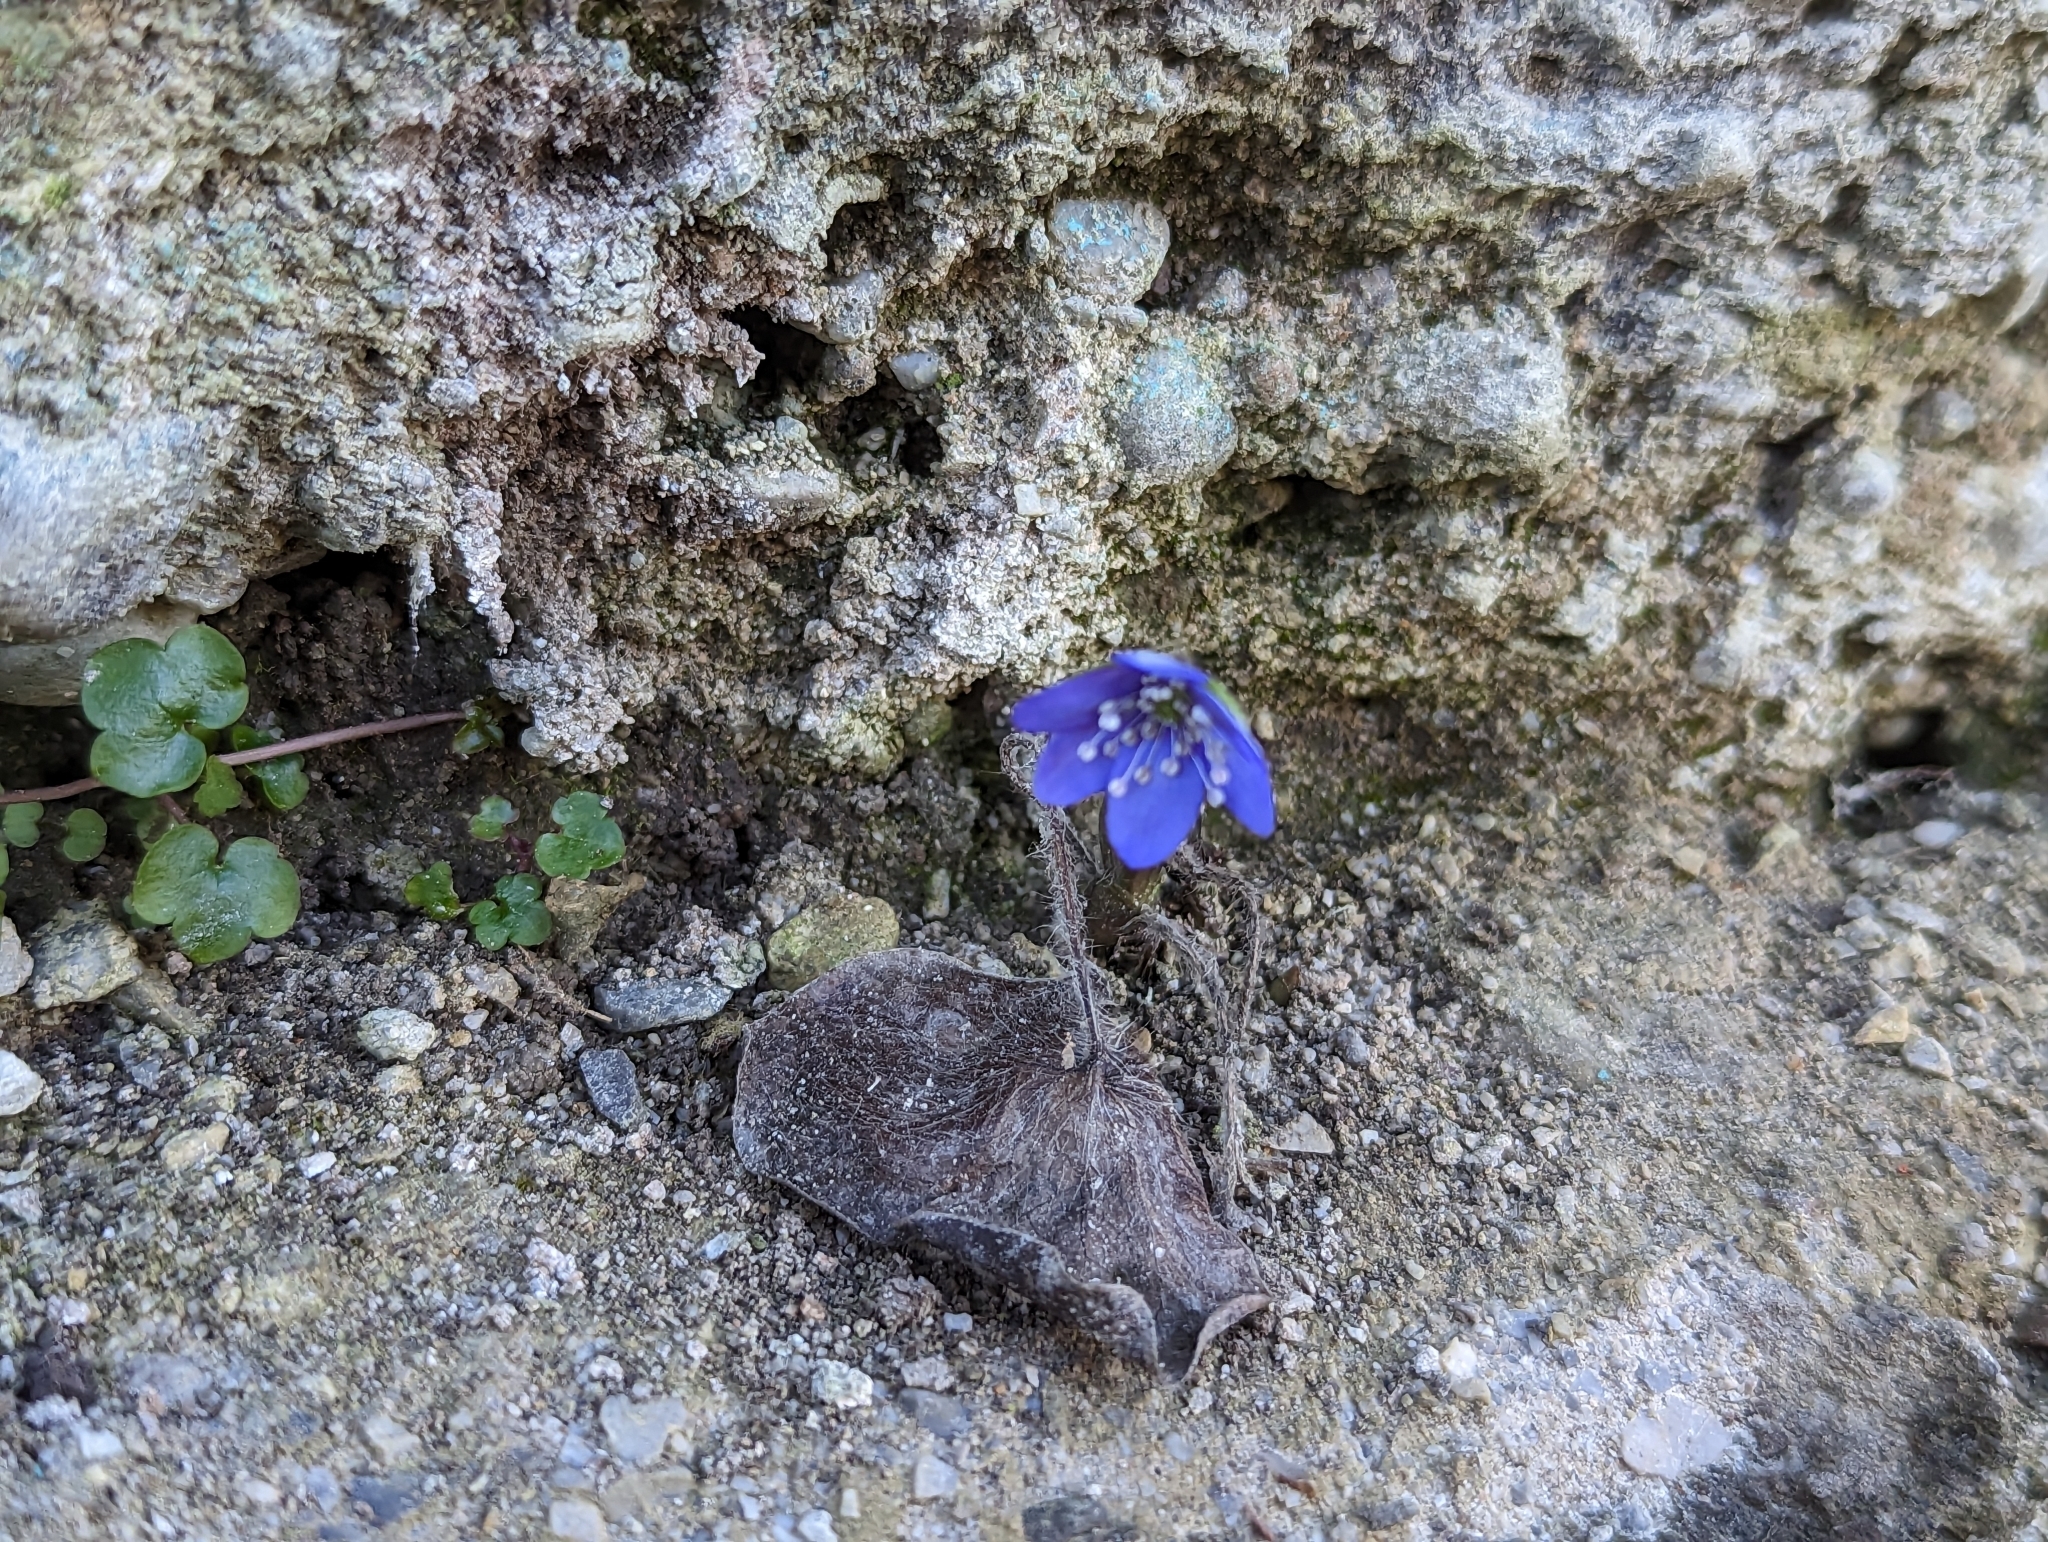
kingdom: Plantae
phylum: Tracheophyta
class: Magnoliopsida
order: Ranunculales
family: Ranunculaceae
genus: Hepatica
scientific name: Hepatica nobilis
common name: Liverleaf
